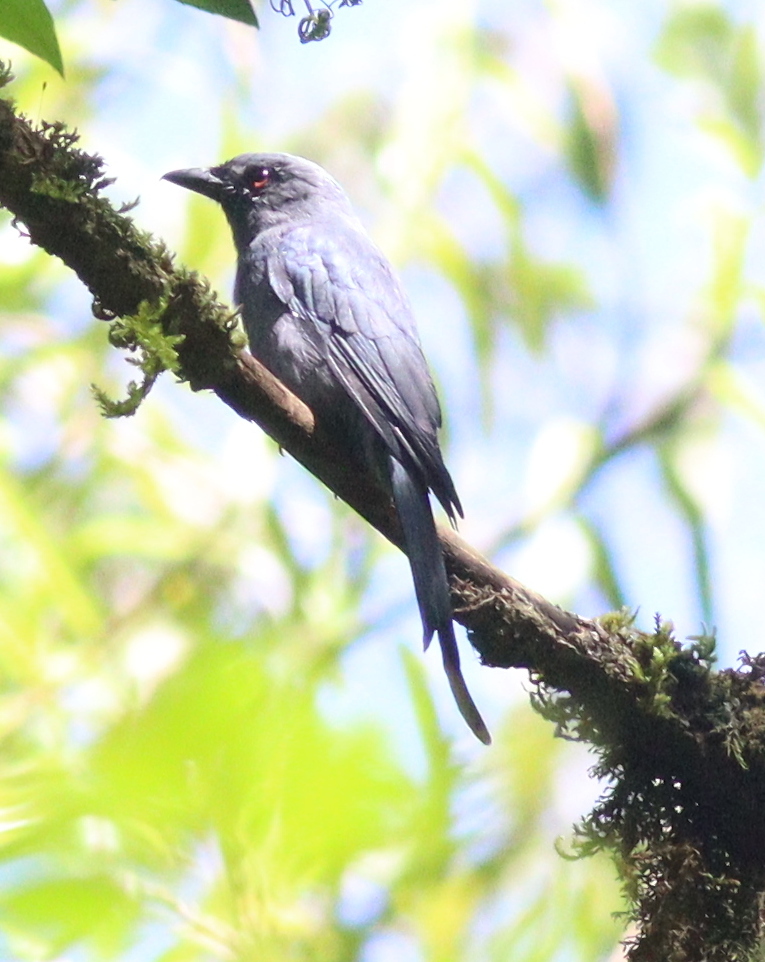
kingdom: Animalia
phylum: Chordata
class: Aves
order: Passeriformes
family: Dicruridae
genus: Dicrurus
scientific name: Dicrurus leucophaeus
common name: Ashy drongo
